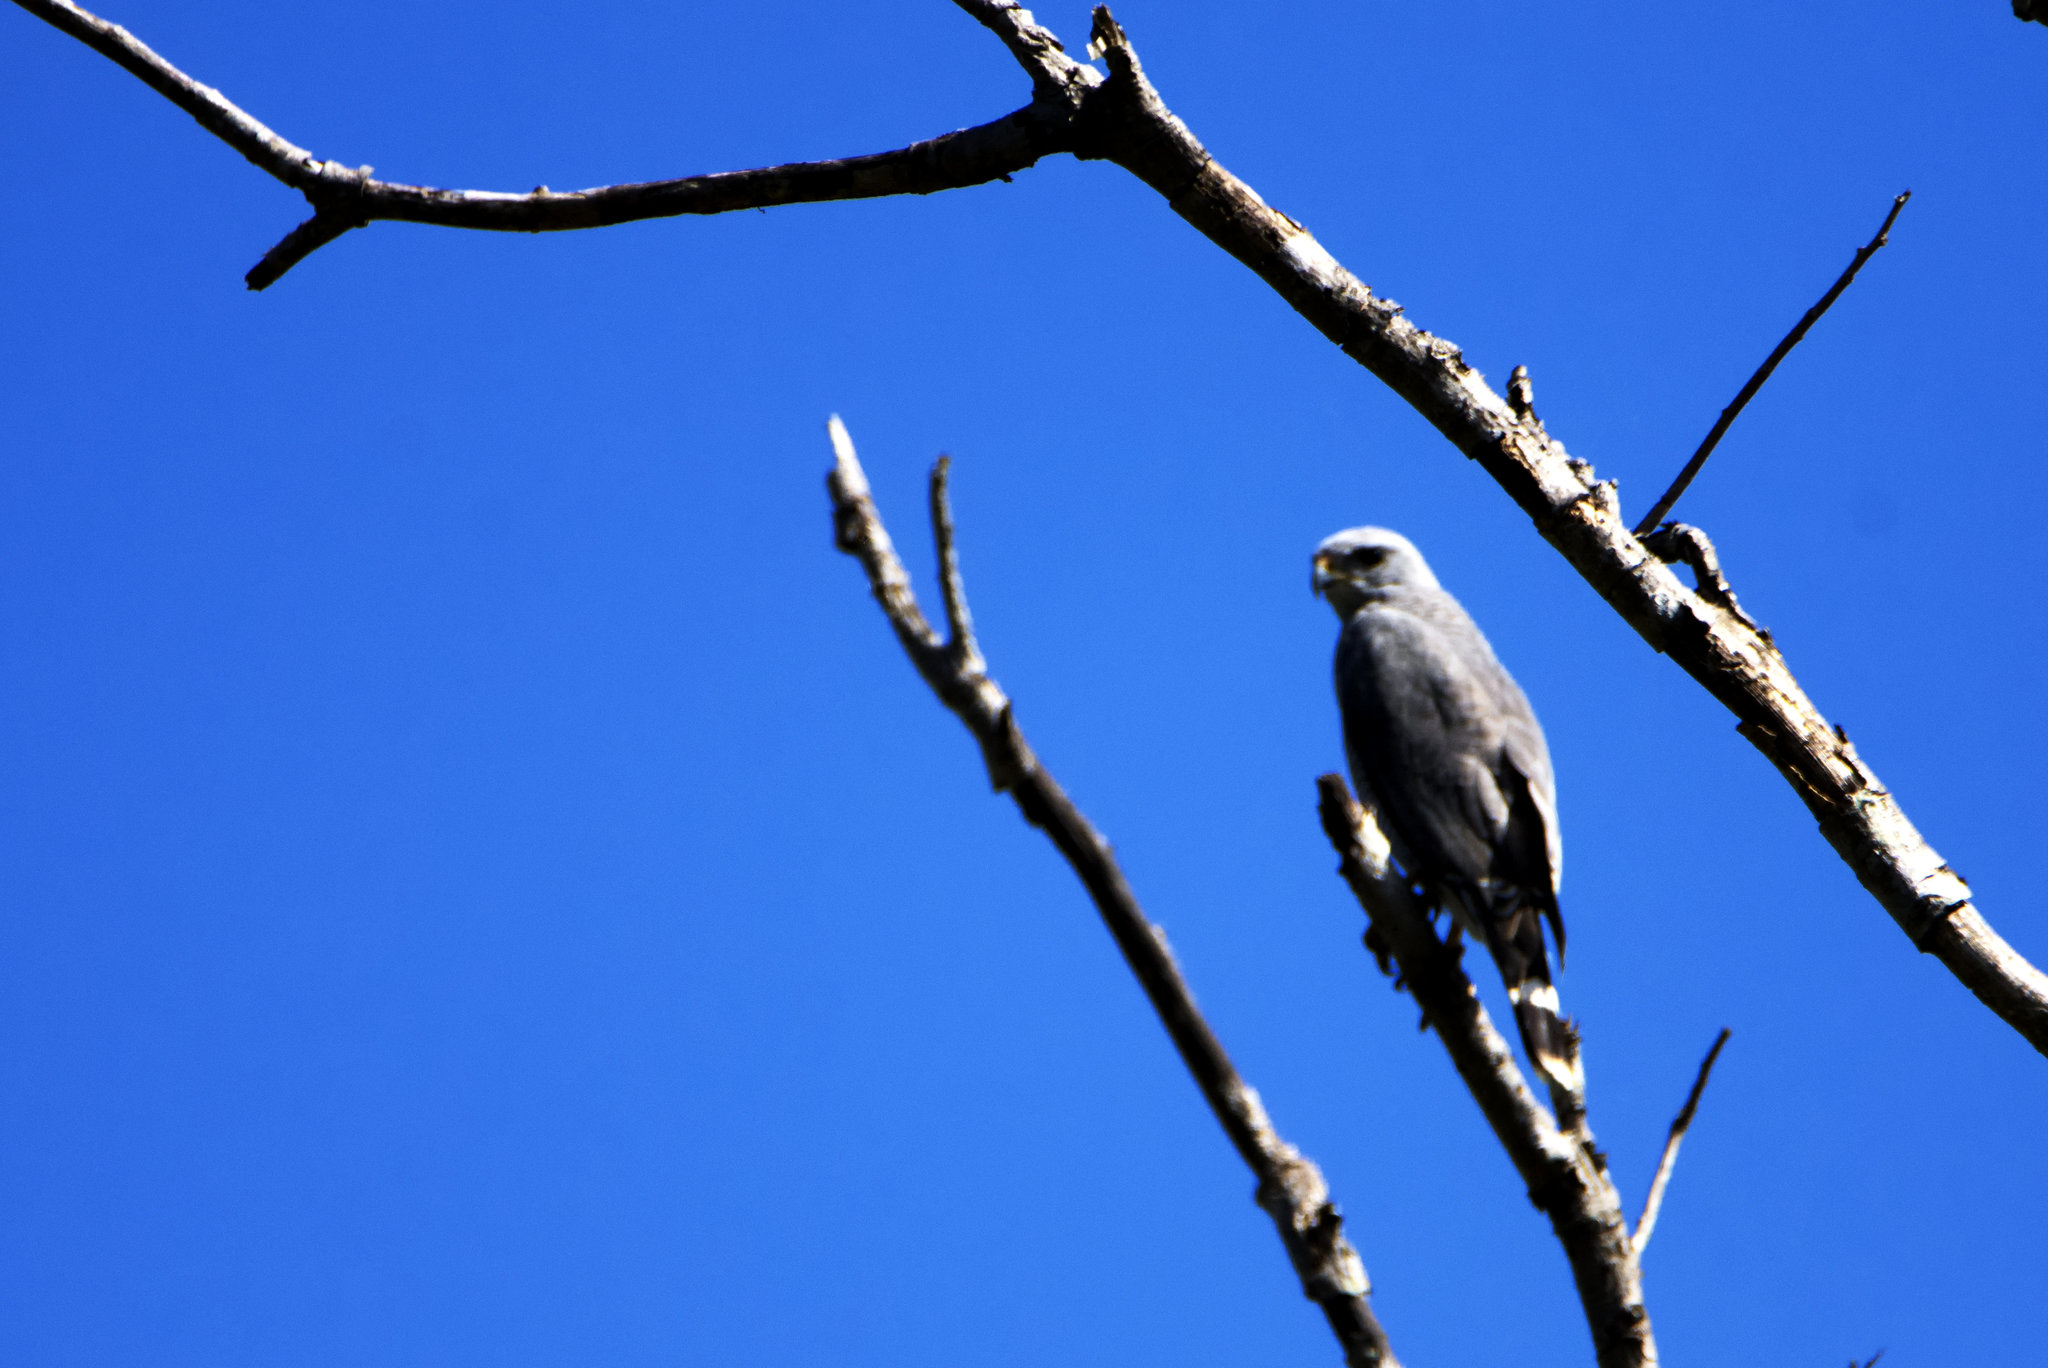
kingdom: Animalia
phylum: Chordata
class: Aves
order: Accipitriformes
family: Accipitridae
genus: Buteo
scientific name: Buteo nitidus
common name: Grey-lined hawk
